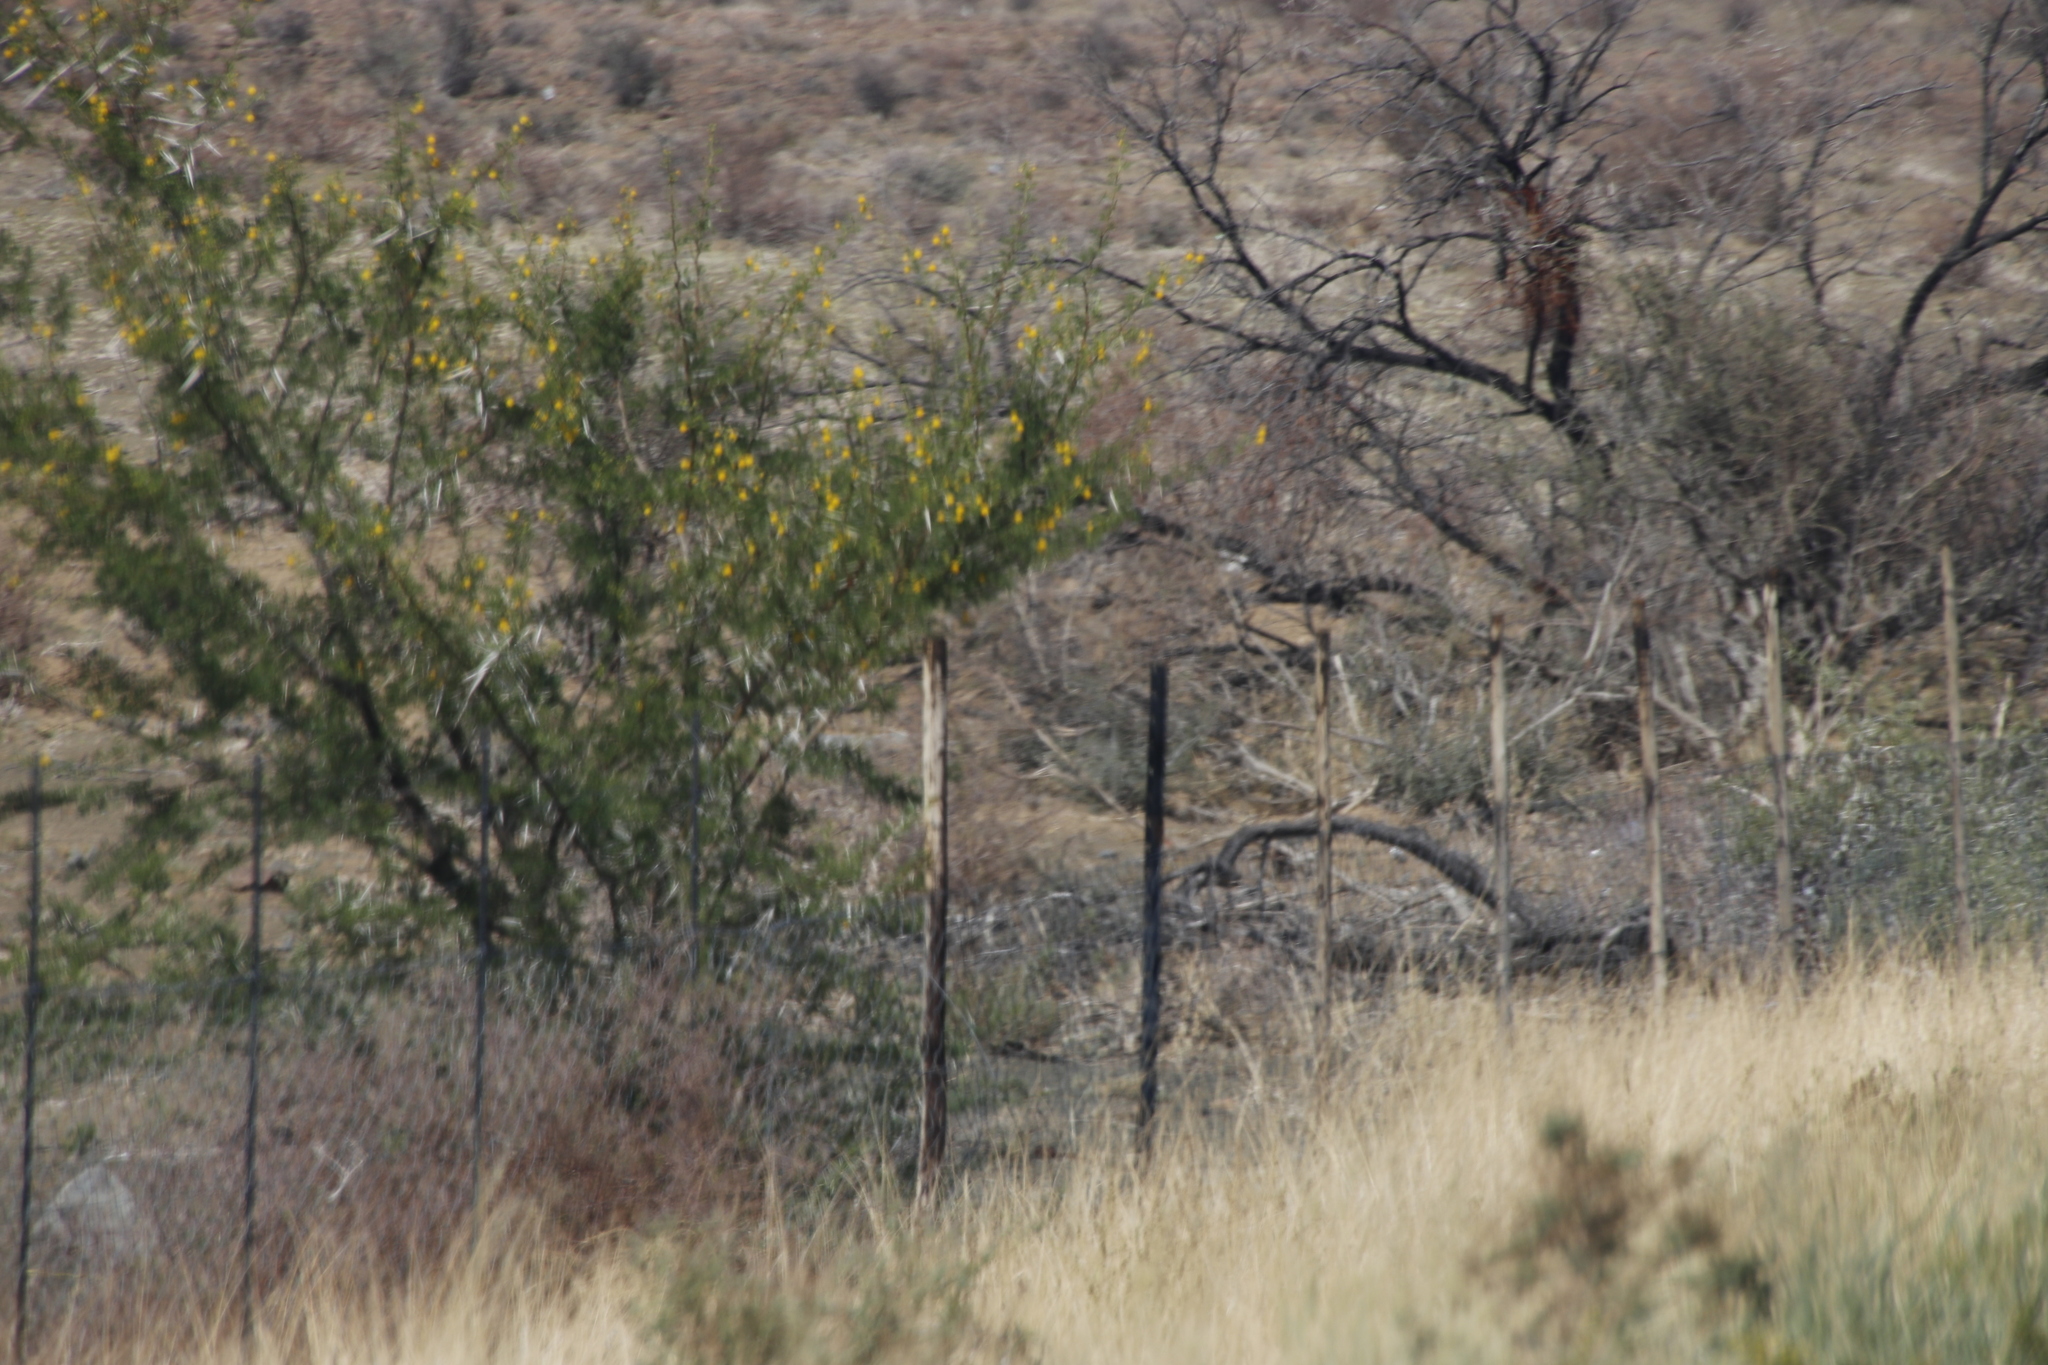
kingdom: Plantae
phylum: Tracheophyta
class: Magnoliopsida
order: Fabales
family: Fabaceae
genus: Vachellia
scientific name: Vachellia karroo
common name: Sweet thorn
